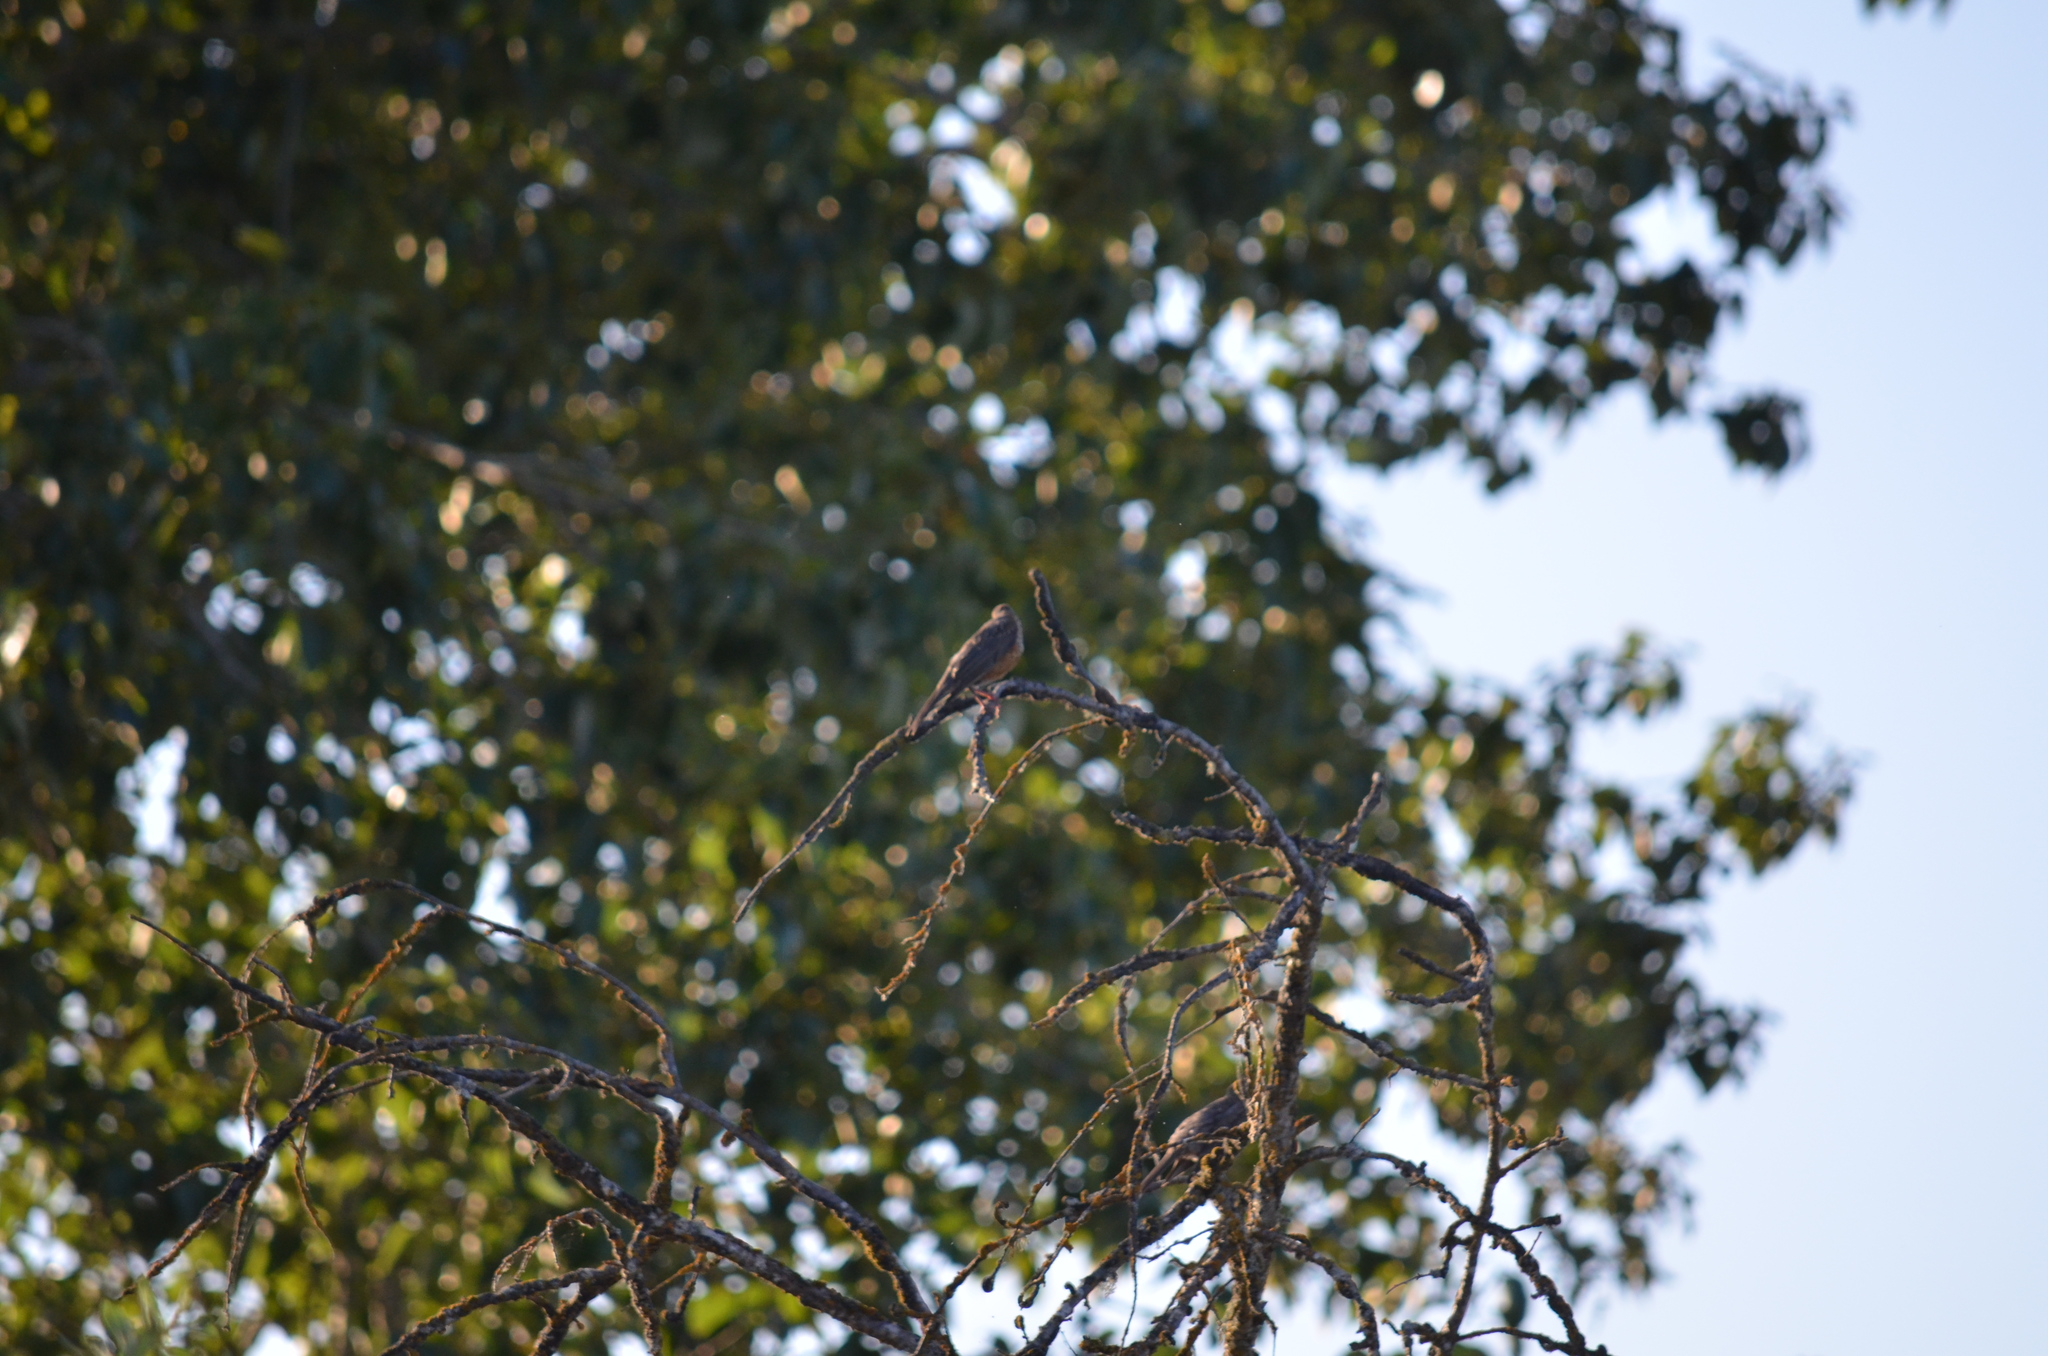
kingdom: Animalia
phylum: Chordata
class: Aves
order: Passeriformes
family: Turdidae
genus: Turdus
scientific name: Turdus migratorius
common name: American robin
